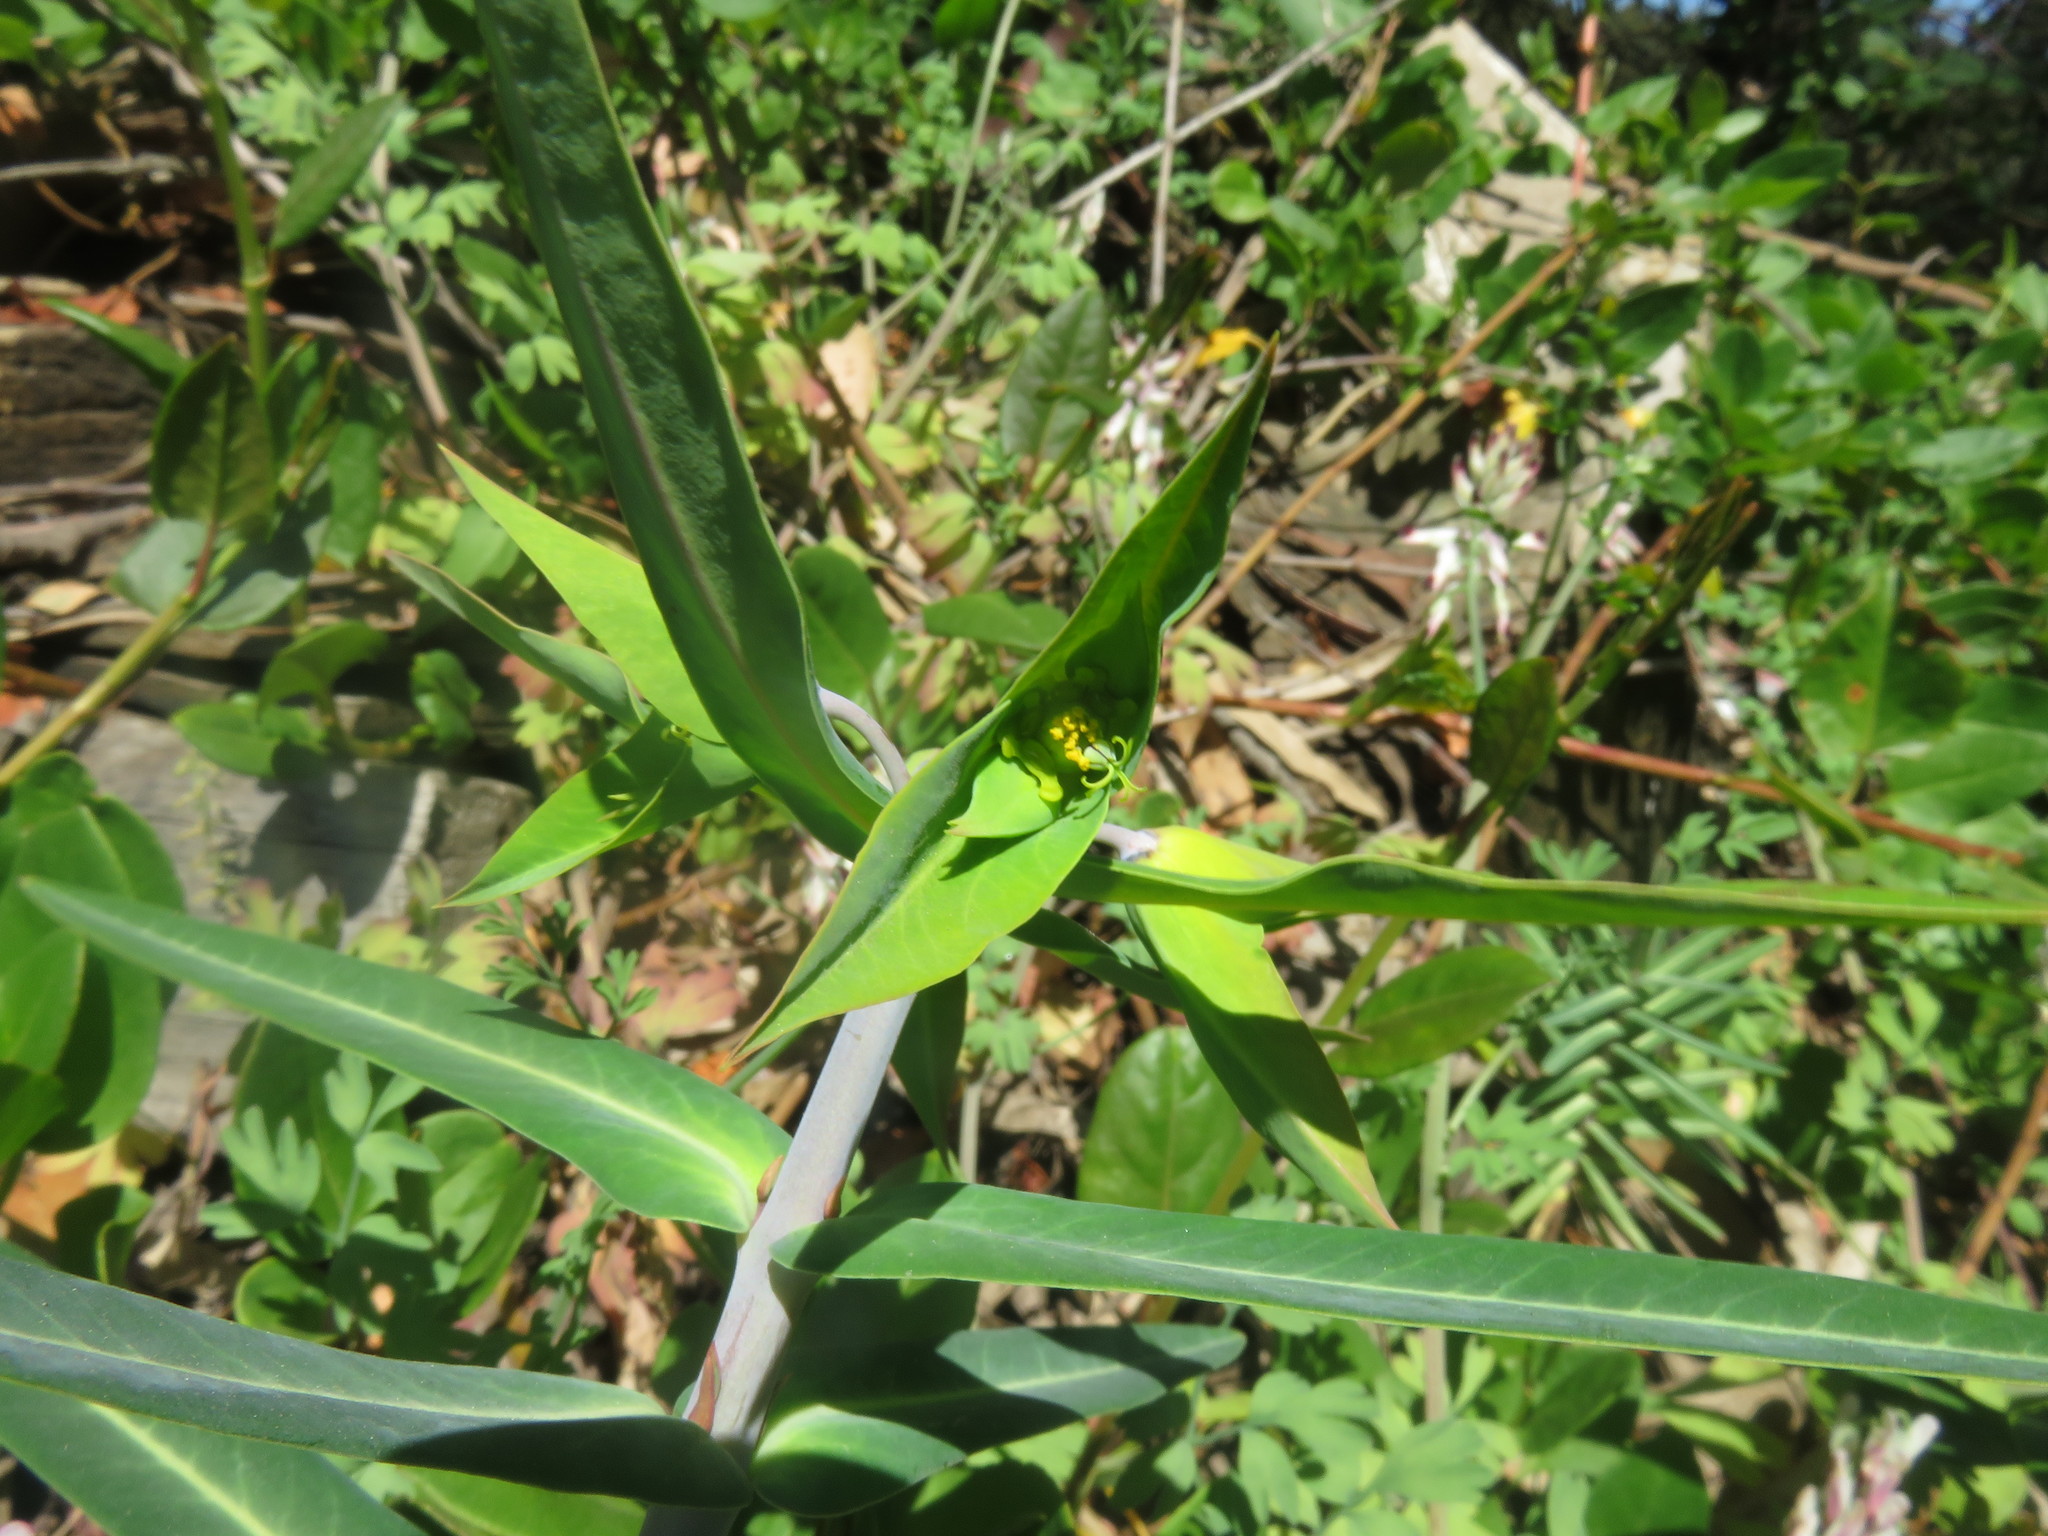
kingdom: Plantae
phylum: Tracheophyta
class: Magnoliopsida
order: Malpighiales
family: Euphorbiaceae
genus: Euphorbia
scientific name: Euphorbia lathyris
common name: Caper spurge
